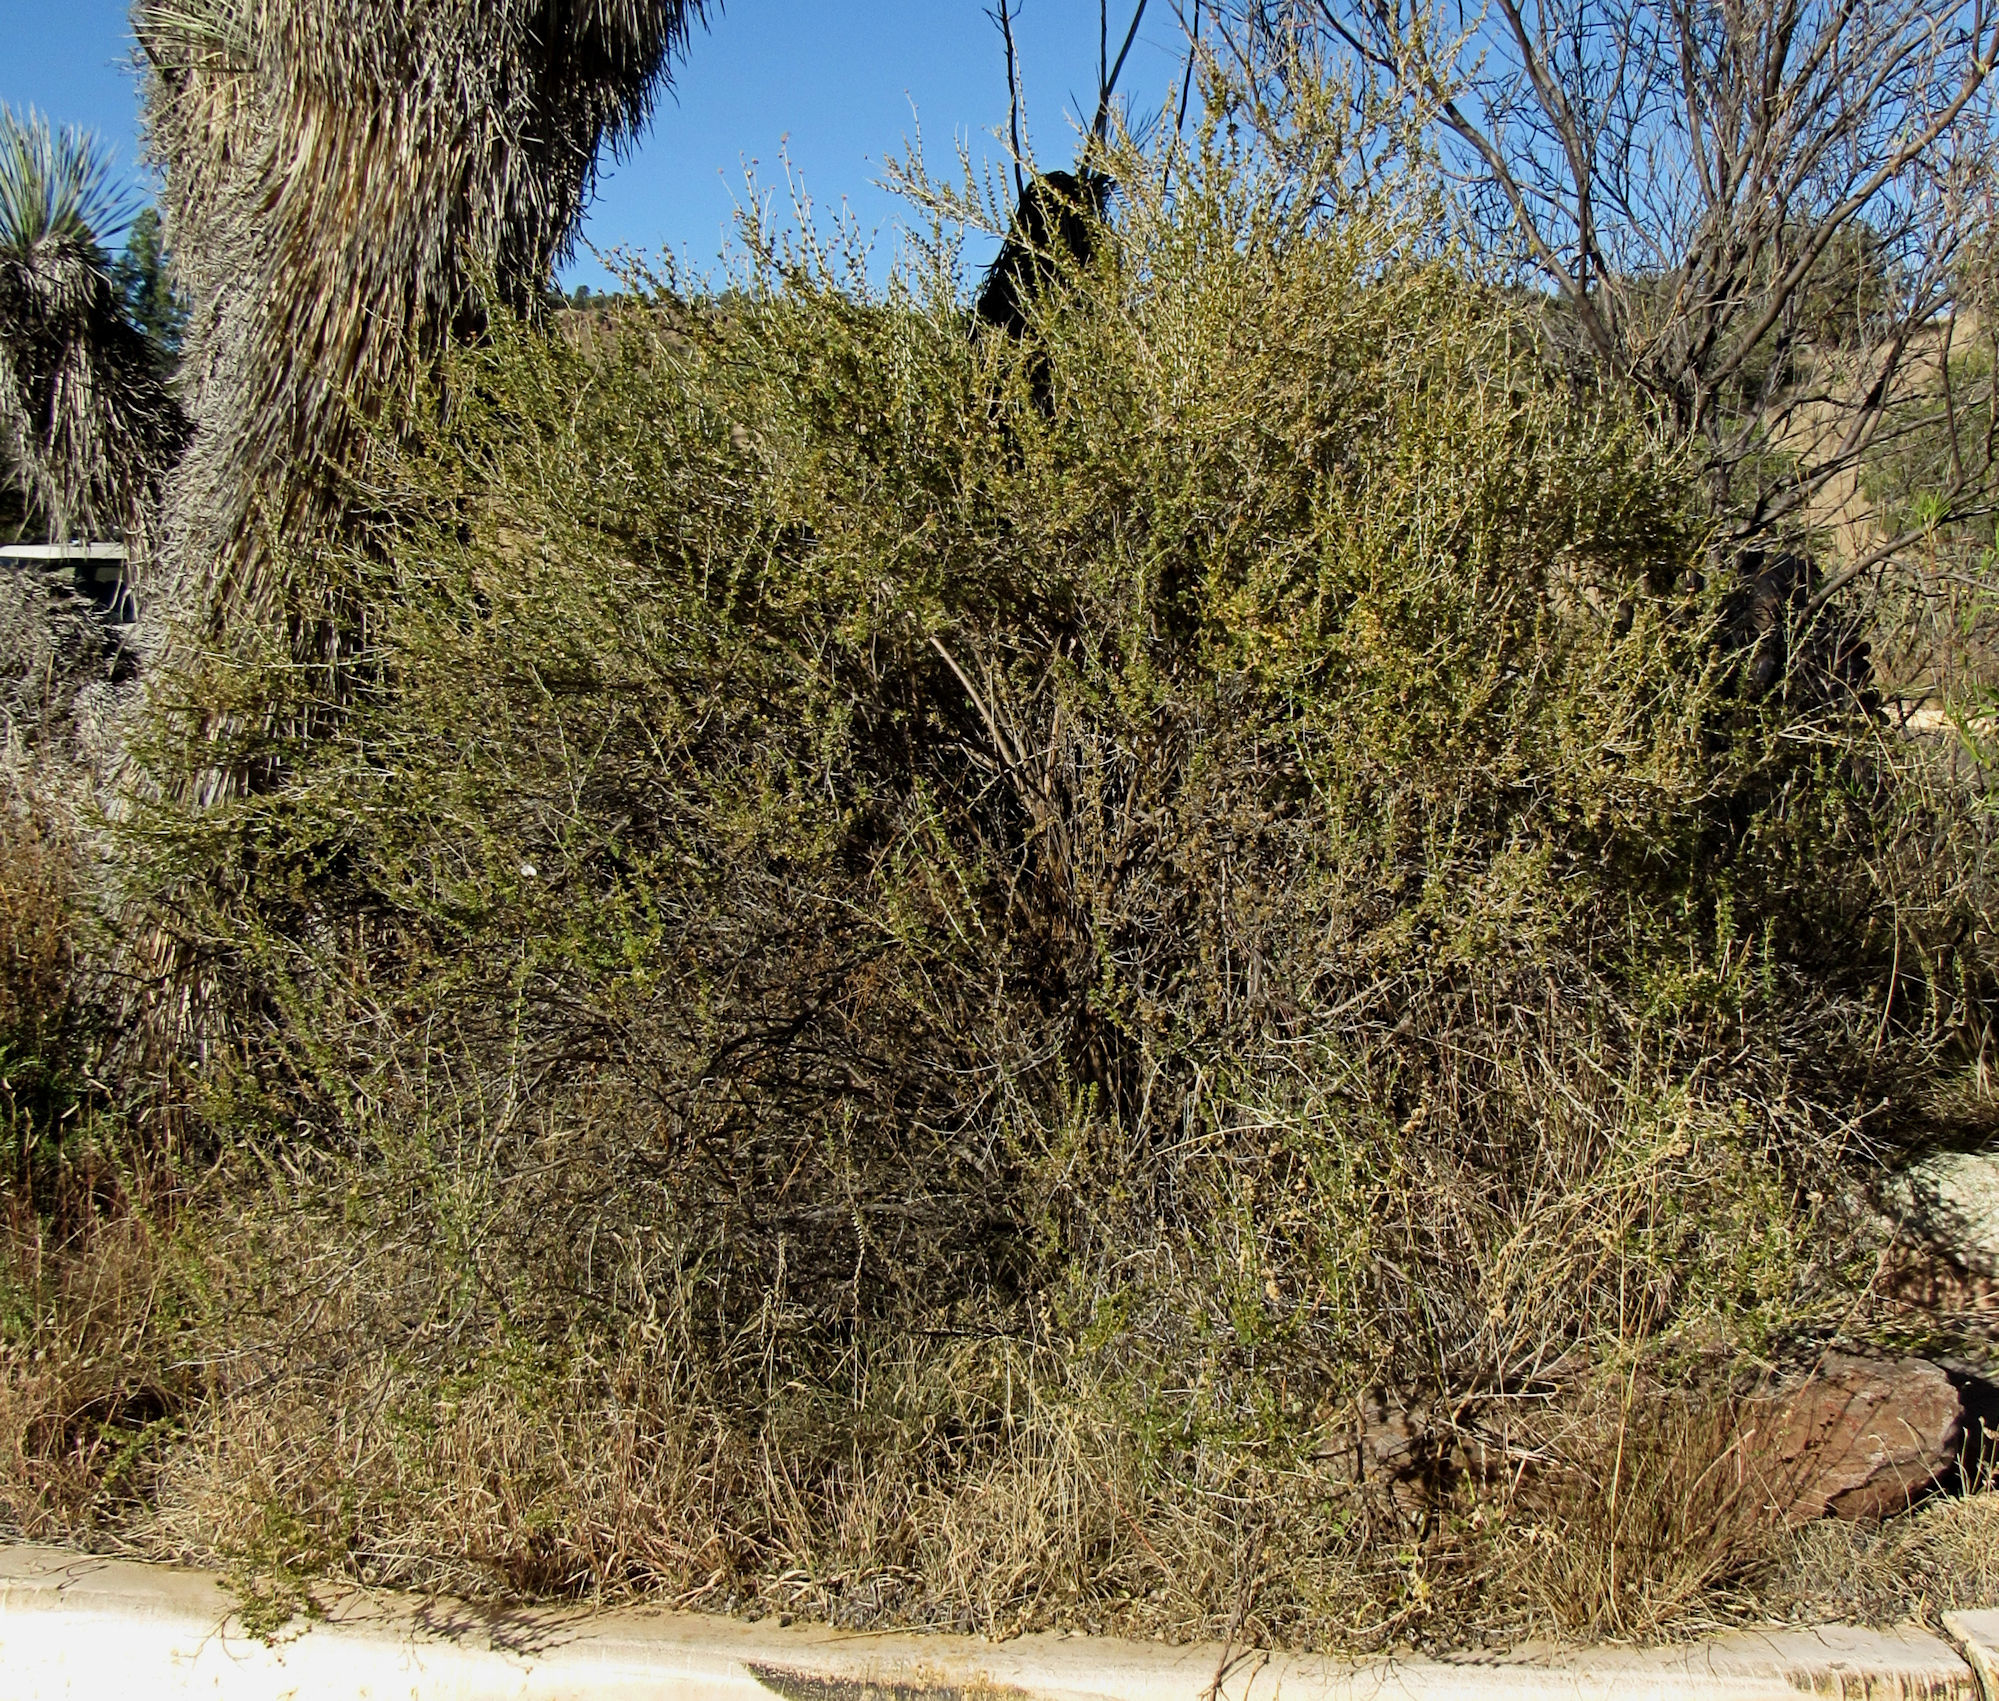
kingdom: Plantae
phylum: Tracheophyta
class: Magnoliopsida
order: Rosales
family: Rosaceae
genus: Fallugia
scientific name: Fallugia paradoxa
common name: Apache-plume
